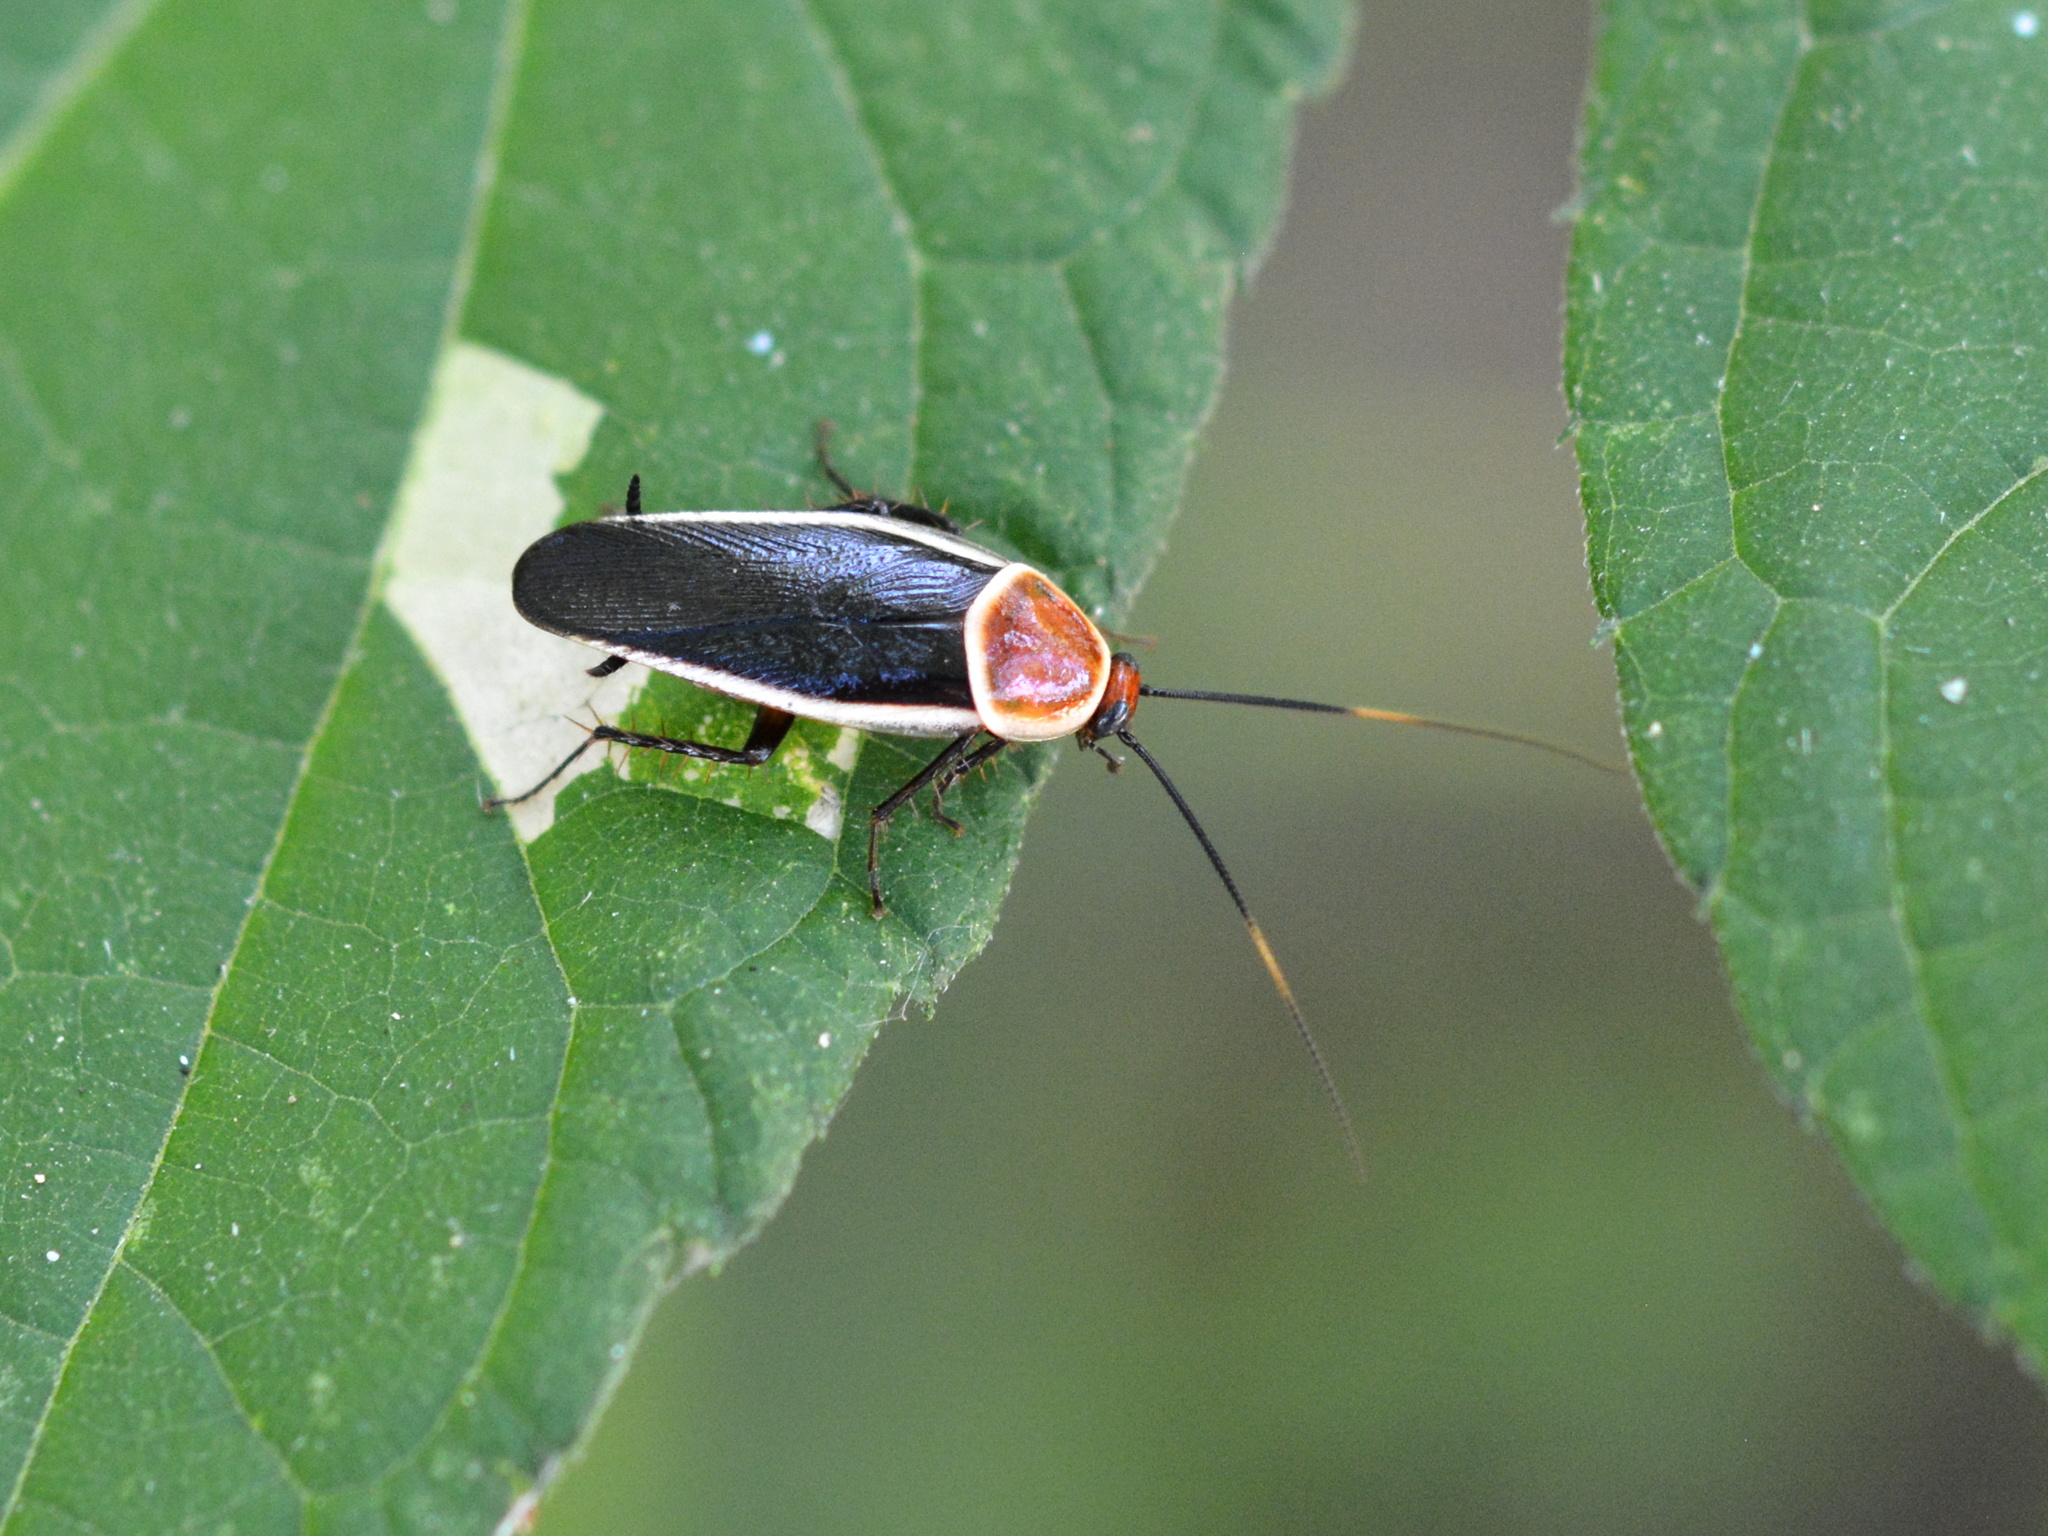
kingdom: Animalia
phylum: Arthropoda
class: Insecta
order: Blattodea
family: Ectobiidae
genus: Pseudomops
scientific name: Pseudomops septentrionalis
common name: Pale-bordered field cockroach
